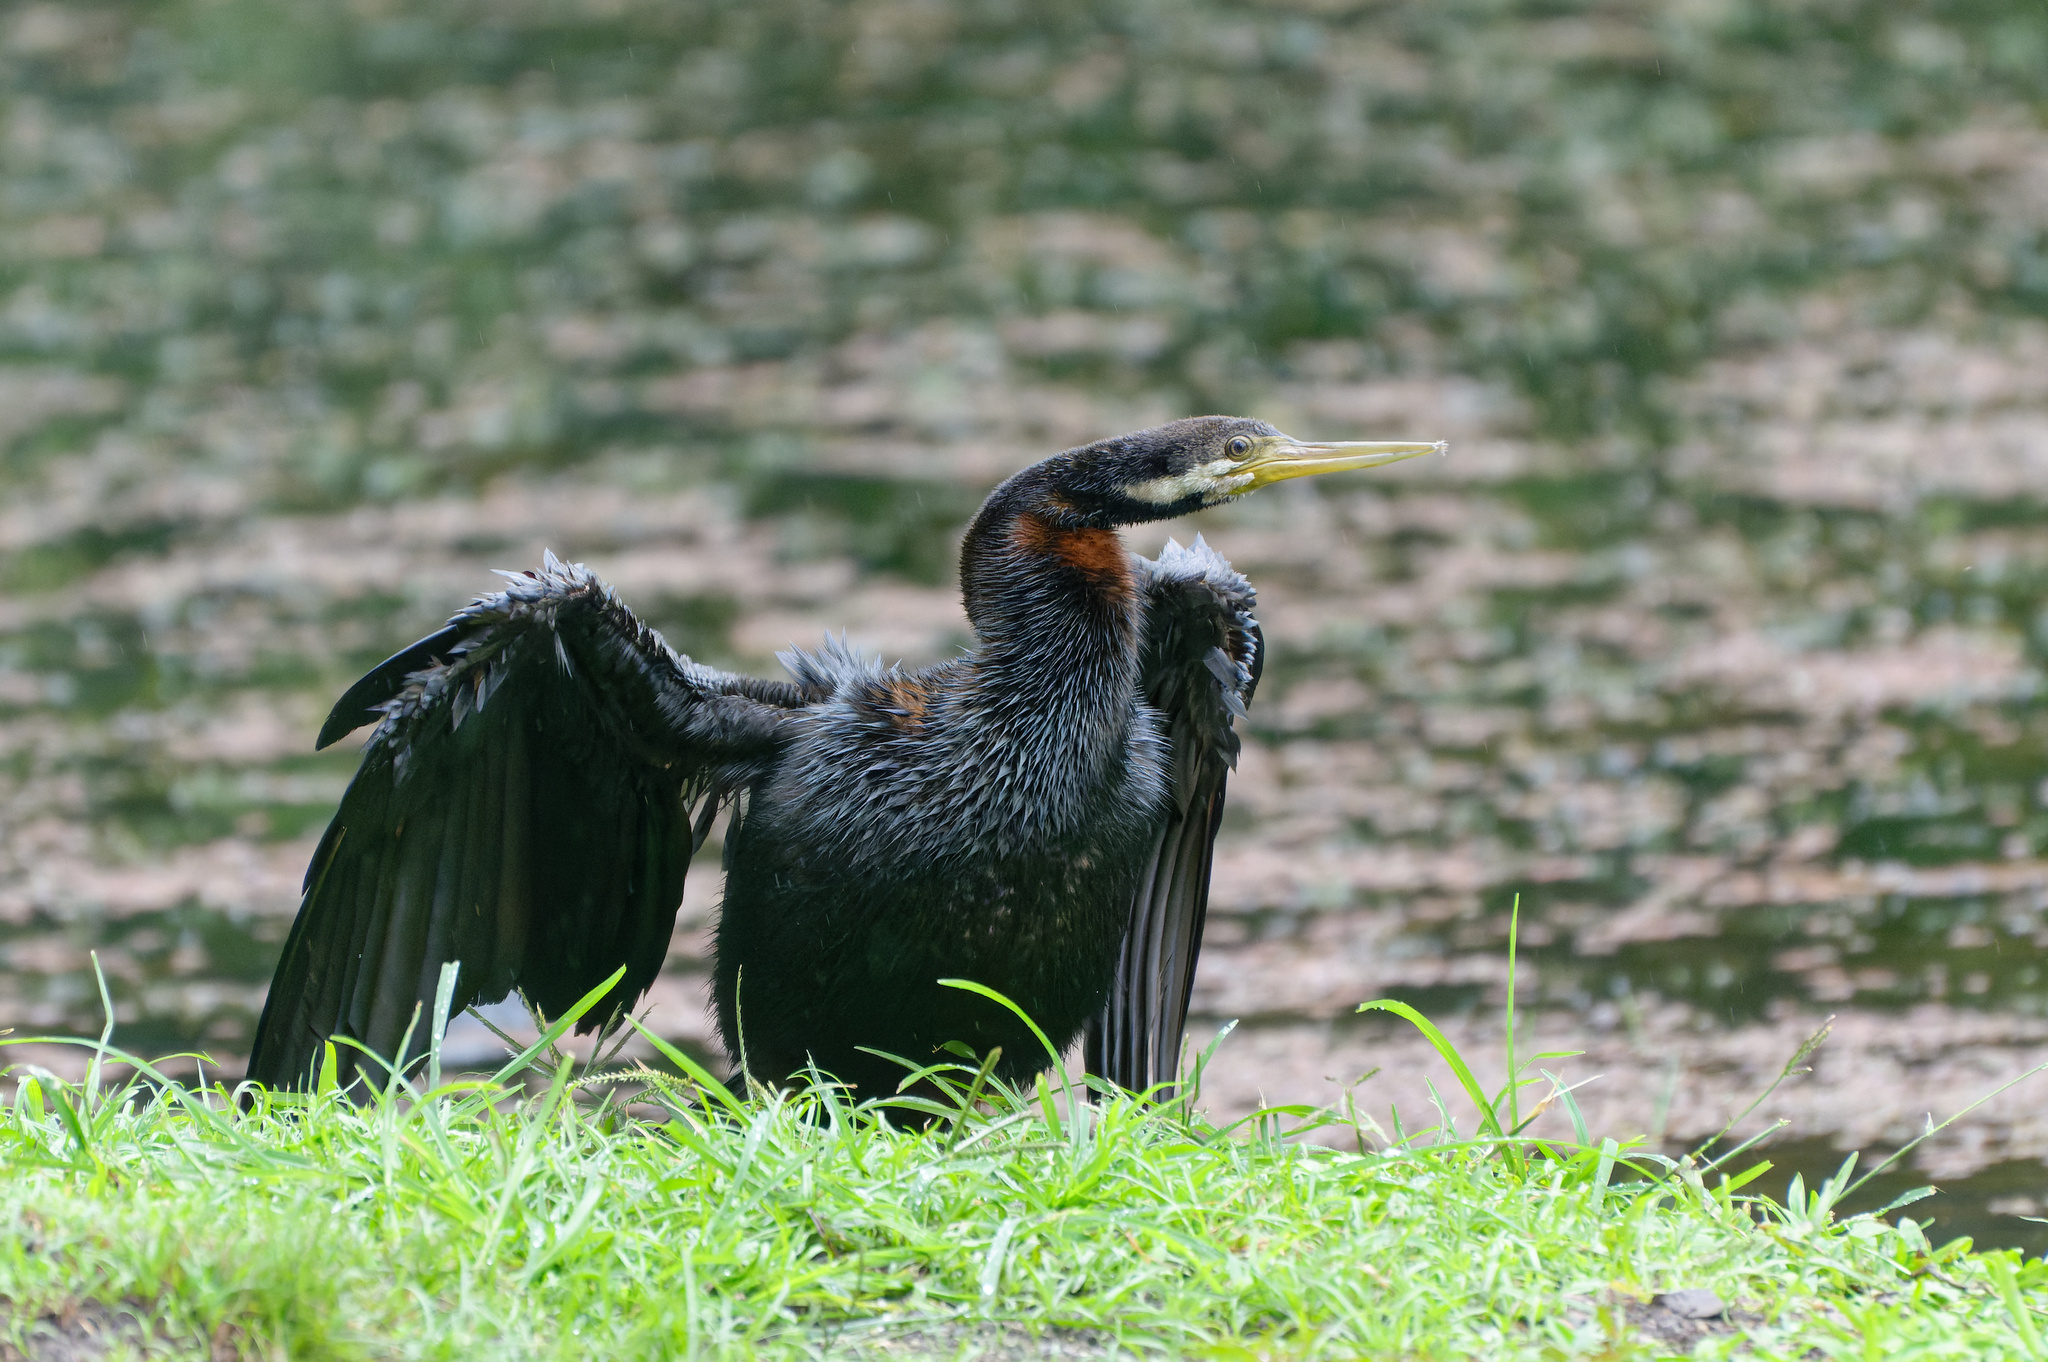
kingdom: Animalia
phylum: Chordata
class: Aves
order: Suliformes
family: Anhingidae
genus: Anhinga
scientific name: Anhinga novaehollandiae
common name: Australasian darter
